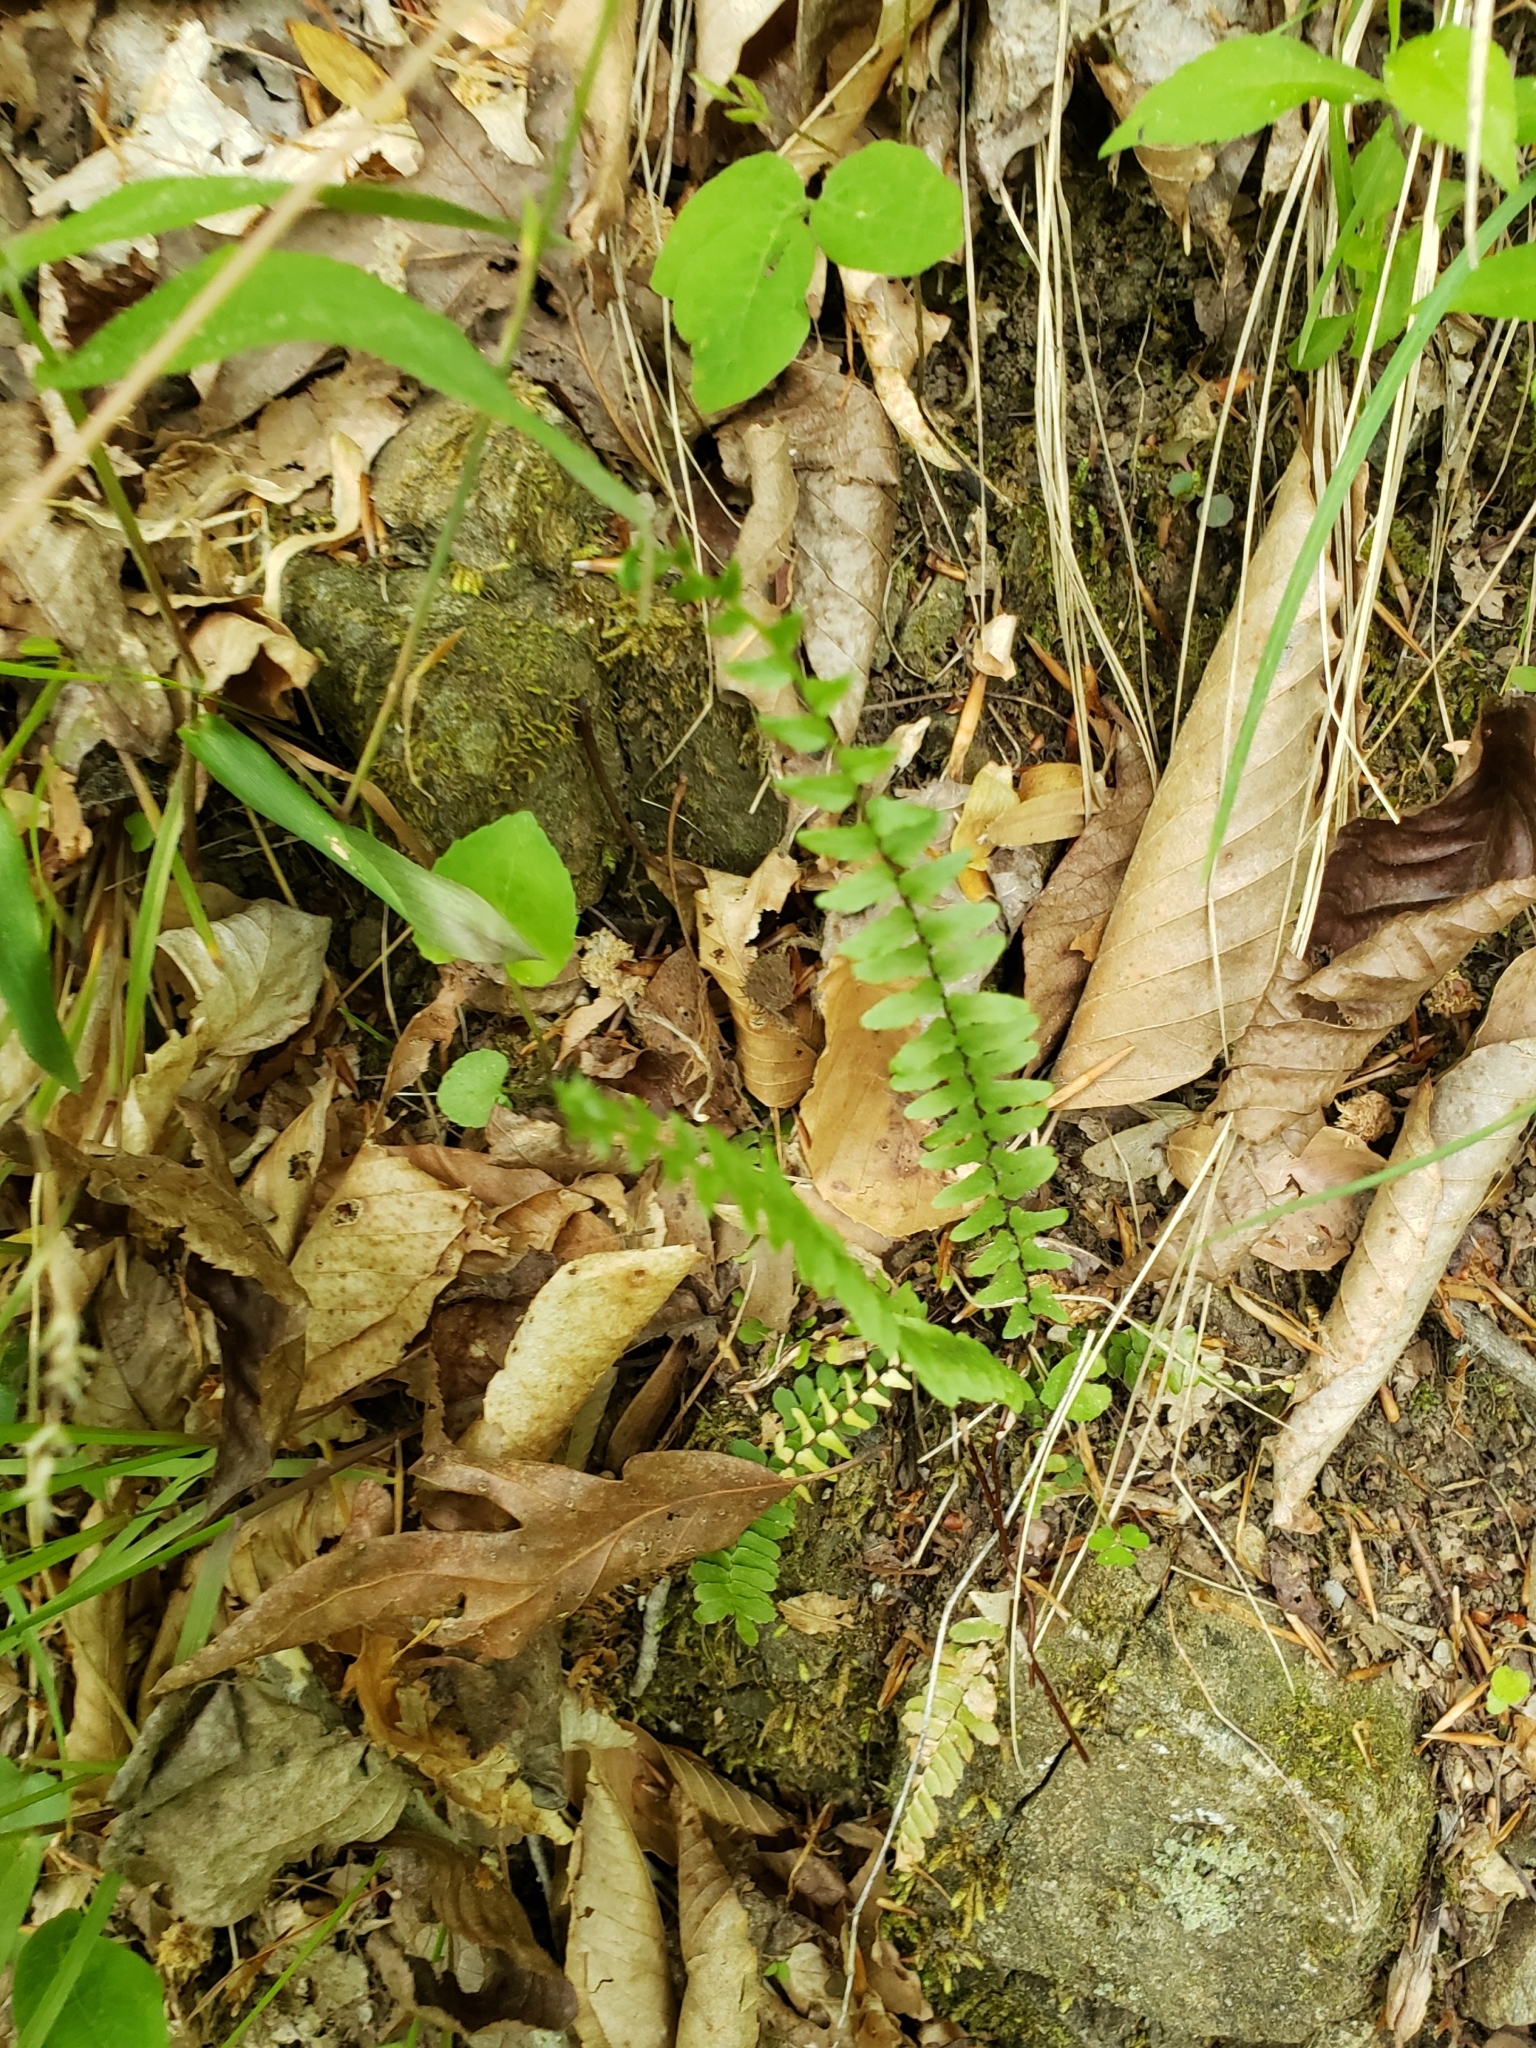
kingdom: Plantae
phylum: Tracheophyta
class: Polypodiopsida
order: Polypodiales
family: Aspleniaceae
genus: Asplenium
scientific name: Asplenium platyneuron
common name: Ebony spleenwort
